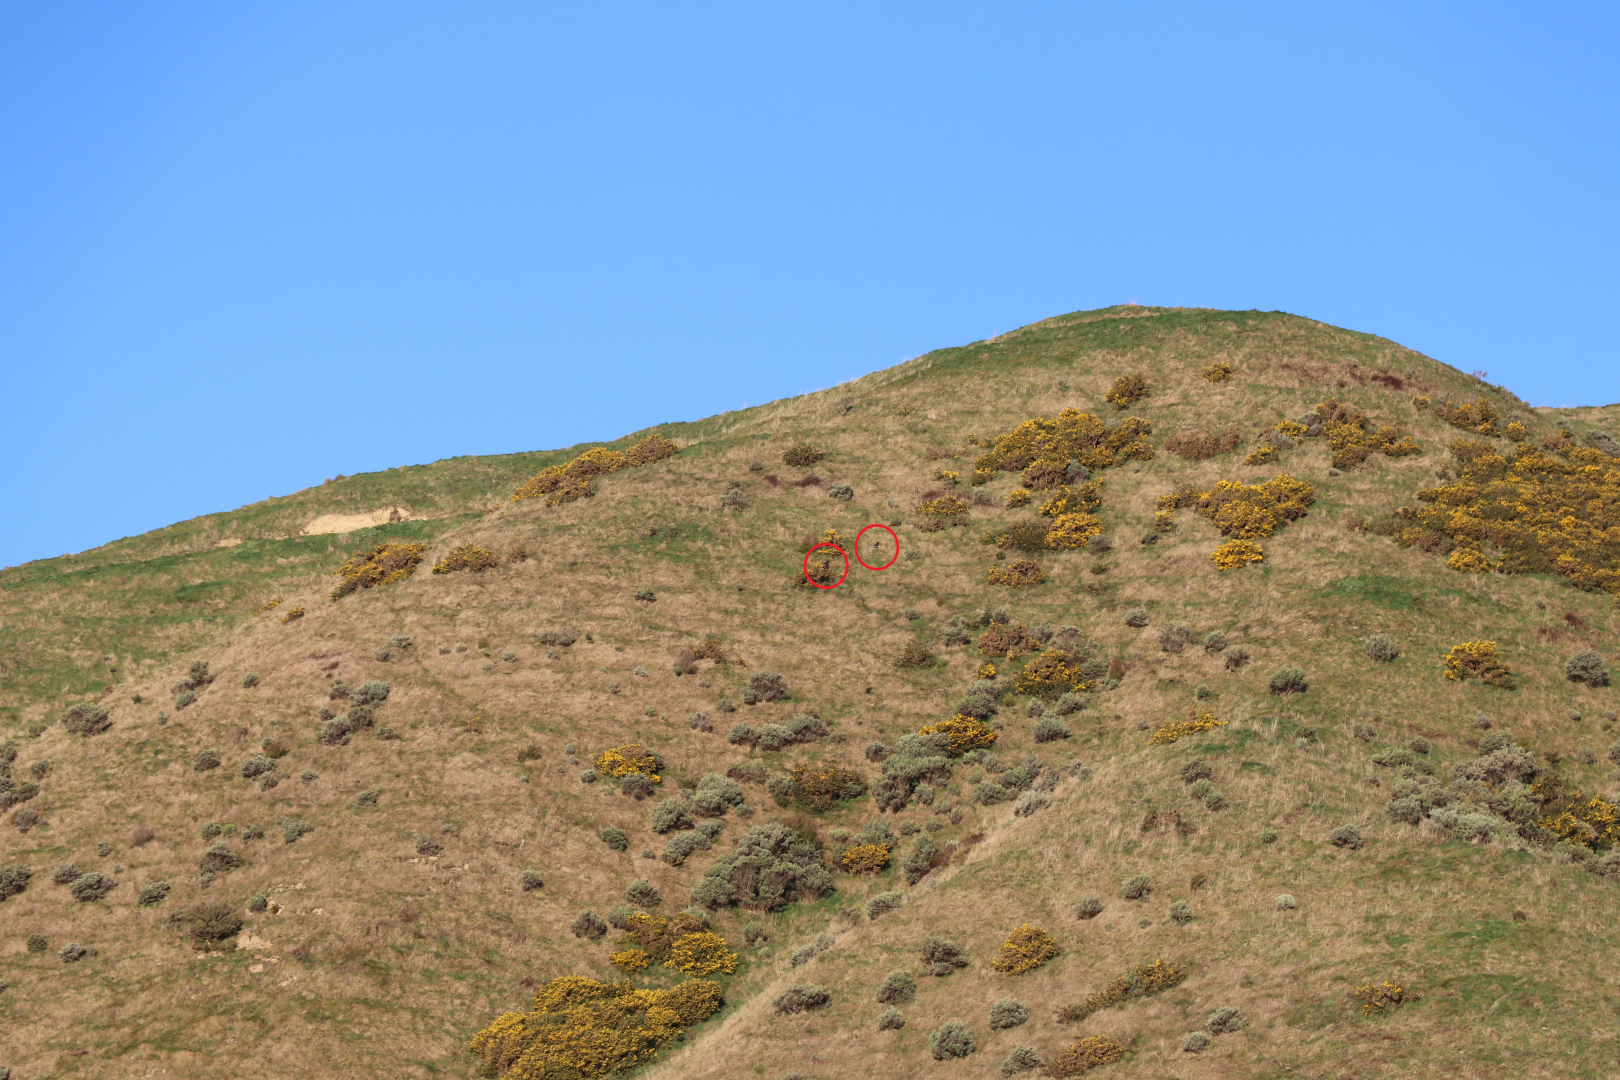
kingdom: Animalia
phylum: Chordata
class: Aves
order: Passeriformes
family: Cracticidae
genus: Gymnorhina
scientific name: Gymnorhina tibicen
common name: Australian magpie
